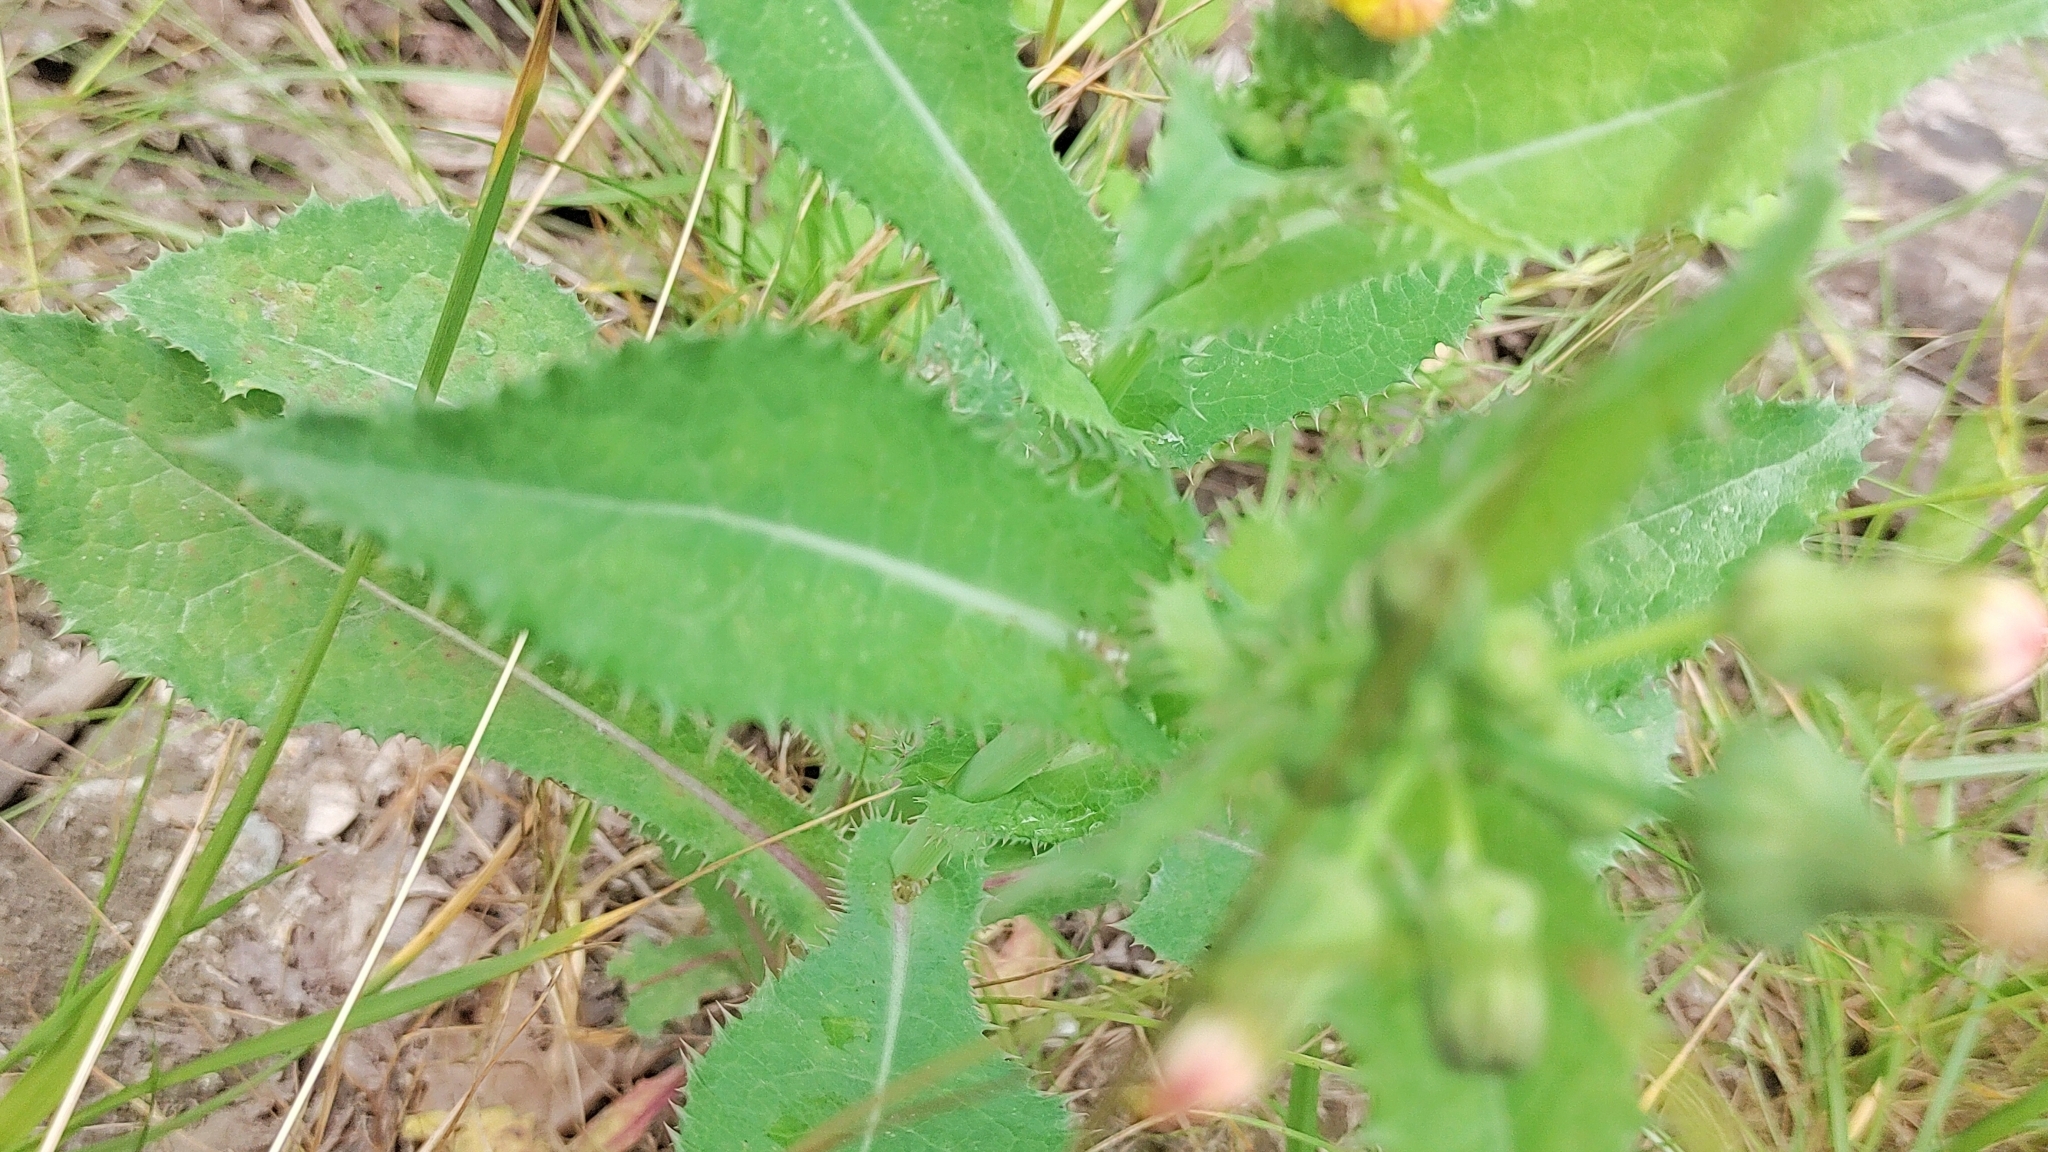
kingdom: Plantae
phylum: Tracheophyta
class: Magnoliopsida
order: Asterales
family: Asteraceae
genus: Sonchus
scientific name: Sonchus asper
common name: Prickly sow-thistle
